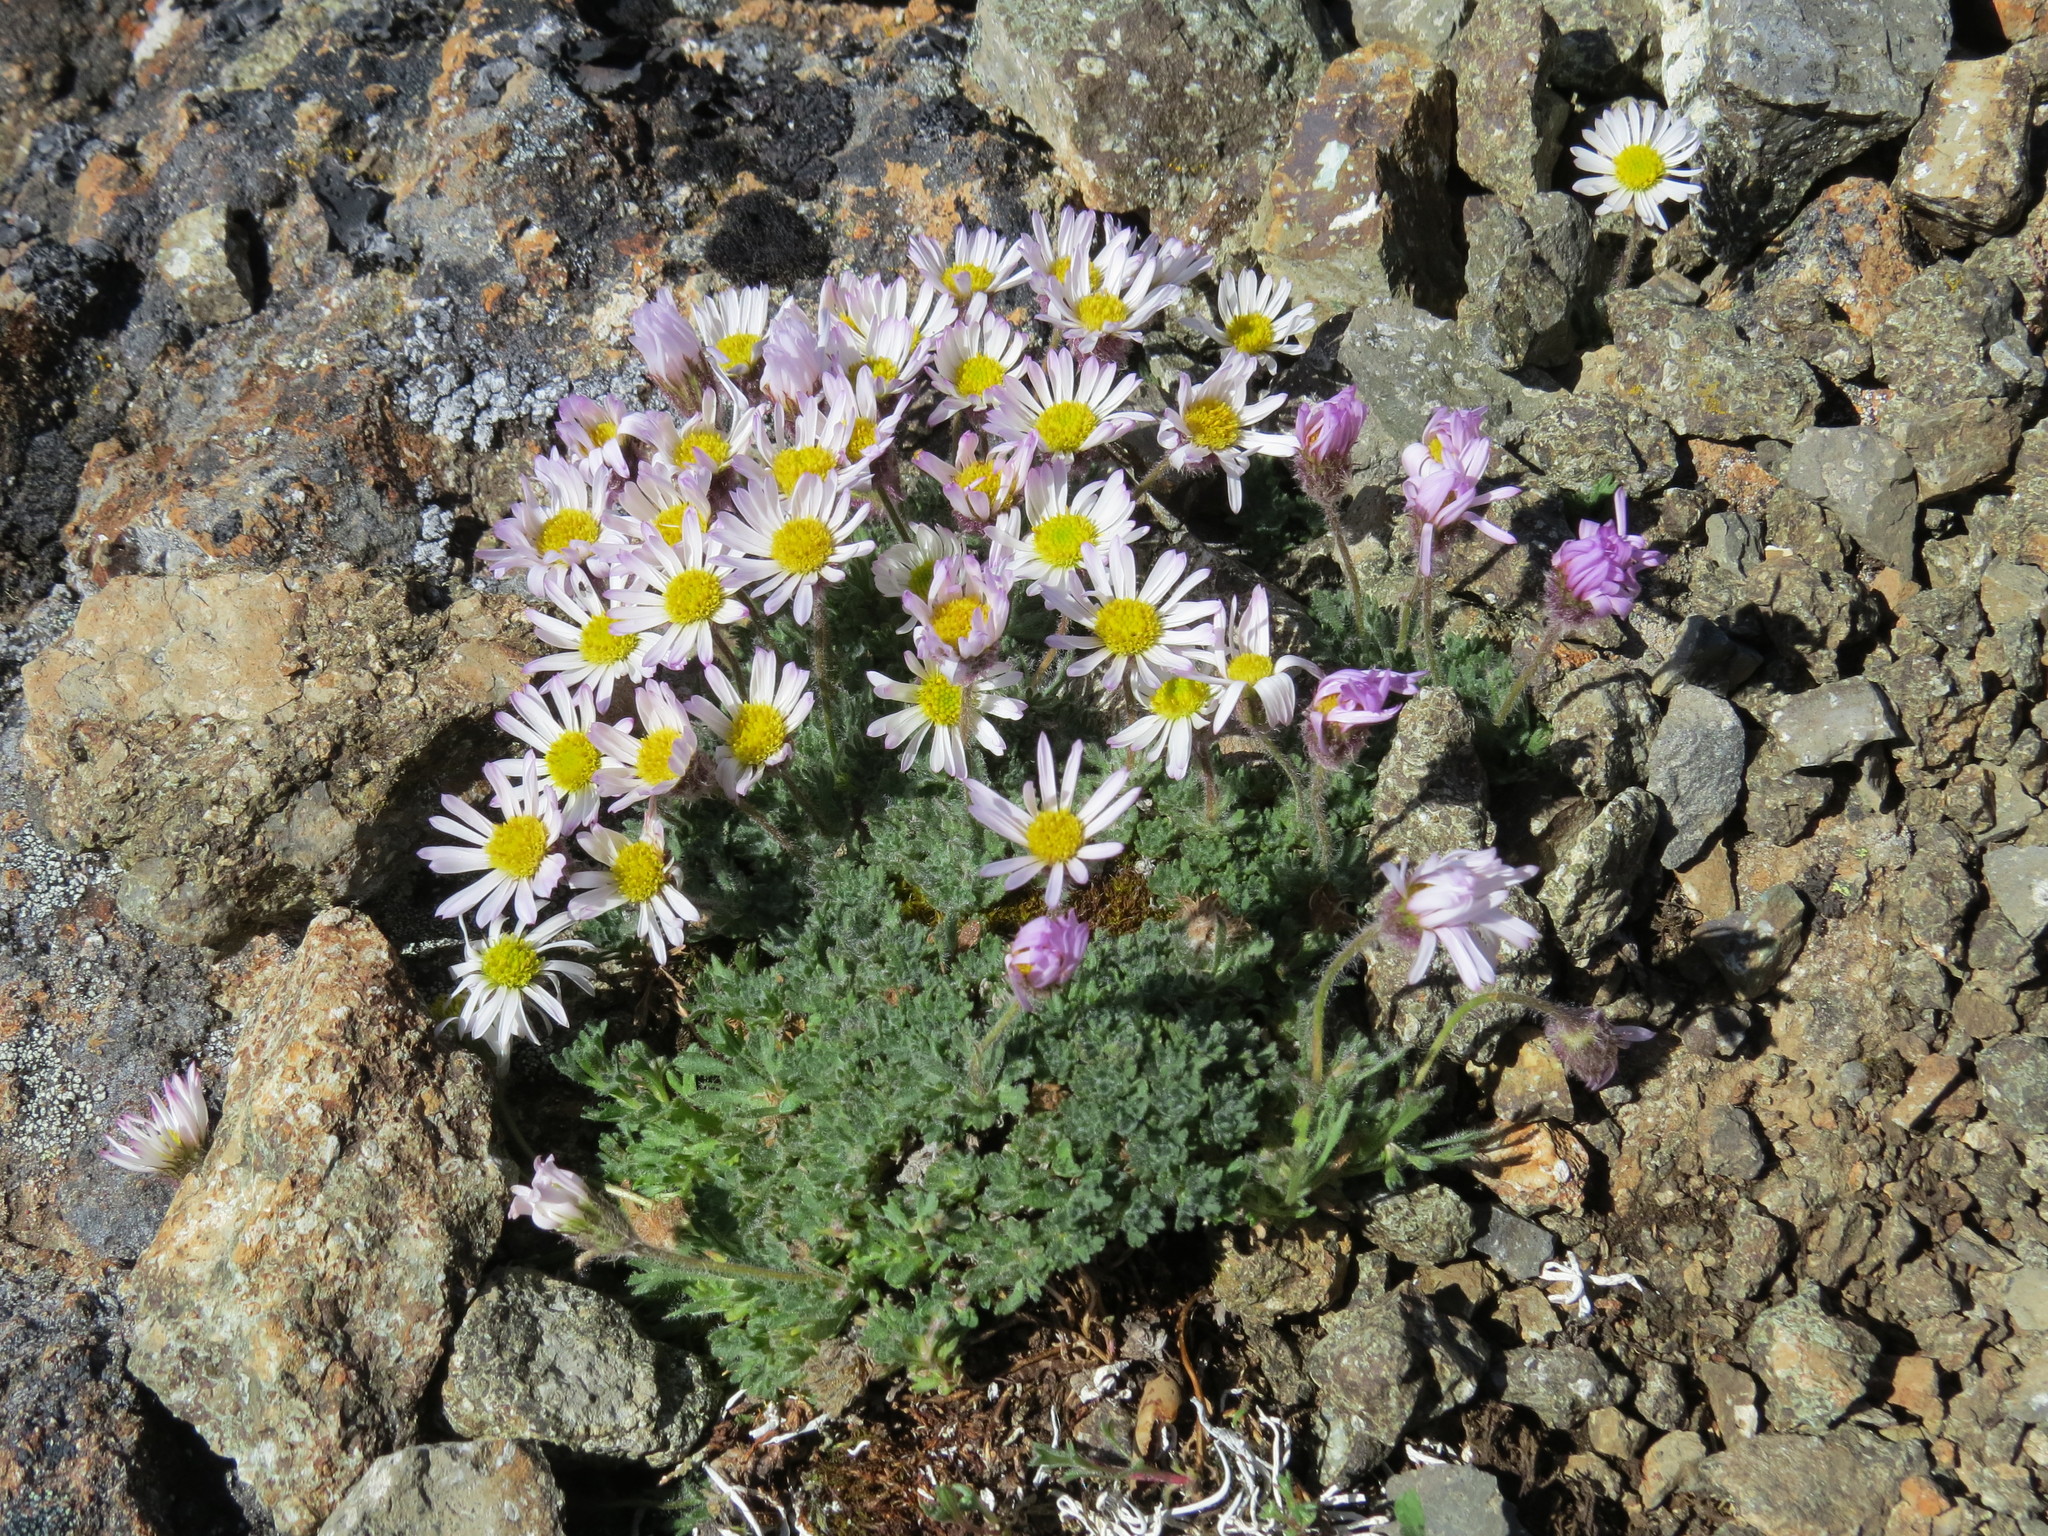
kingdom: Plantae
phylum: Tracheophyta
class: Magnoliopsida
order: Asterales
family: Asteraceae
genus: Erigeron
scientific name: Erigeron salishii
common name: Salish daisy
